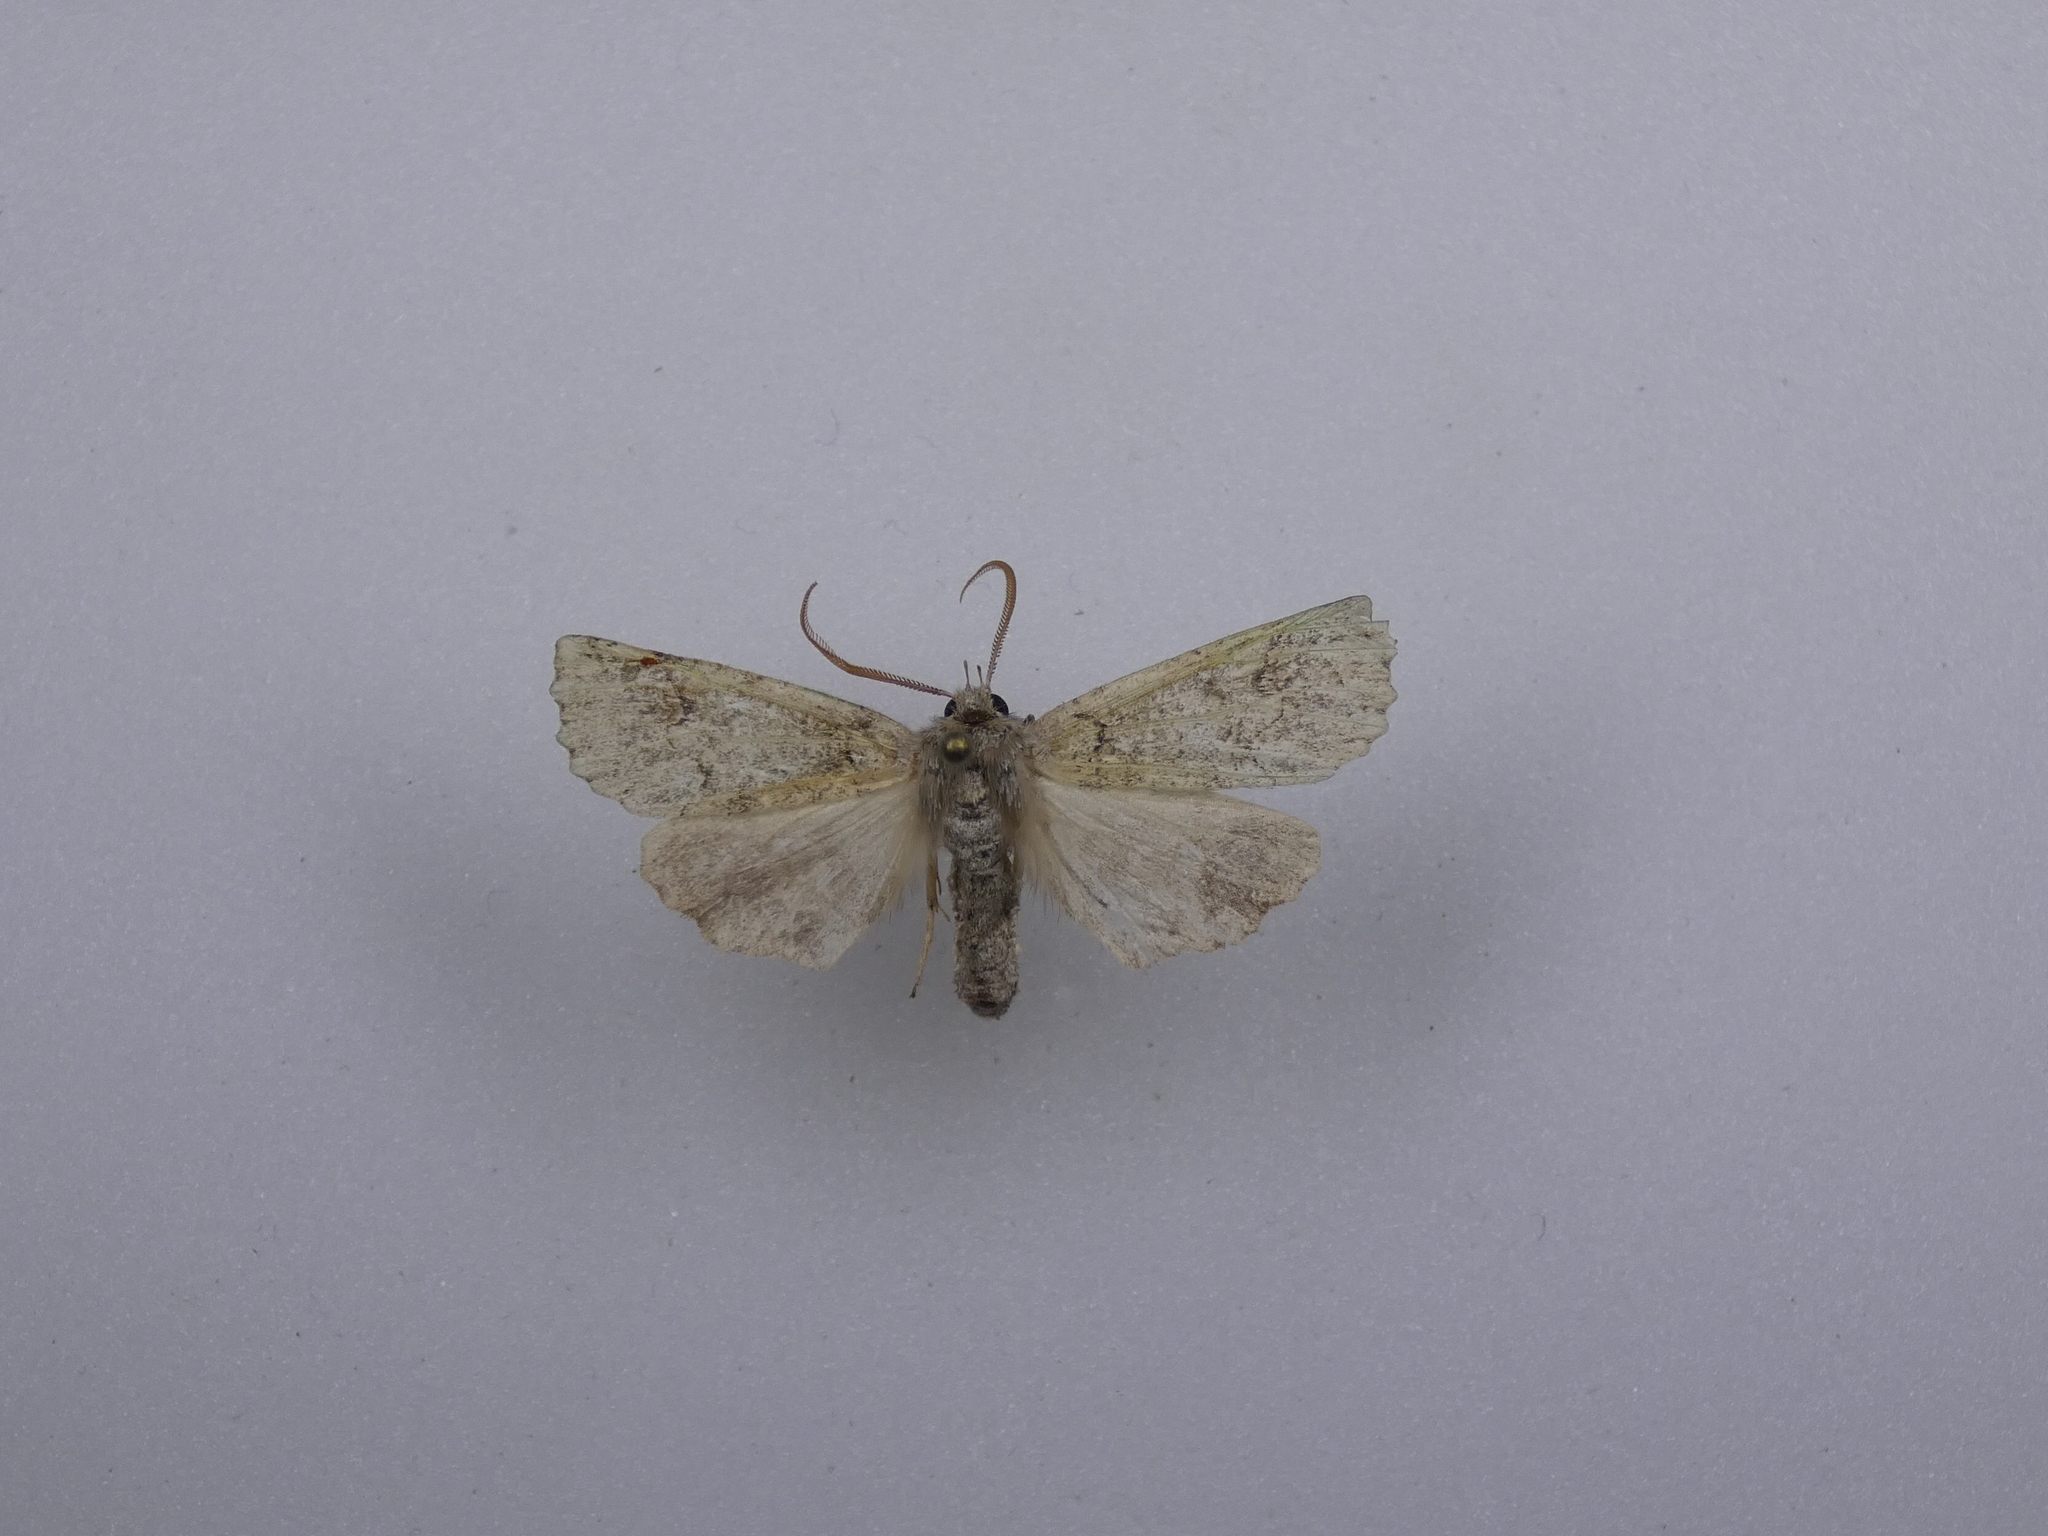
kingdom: Animalia
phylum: Arthropoda
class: Insecta
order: Lepidoptera
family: Geometridae
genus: Declana
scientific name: Declana floccosa
